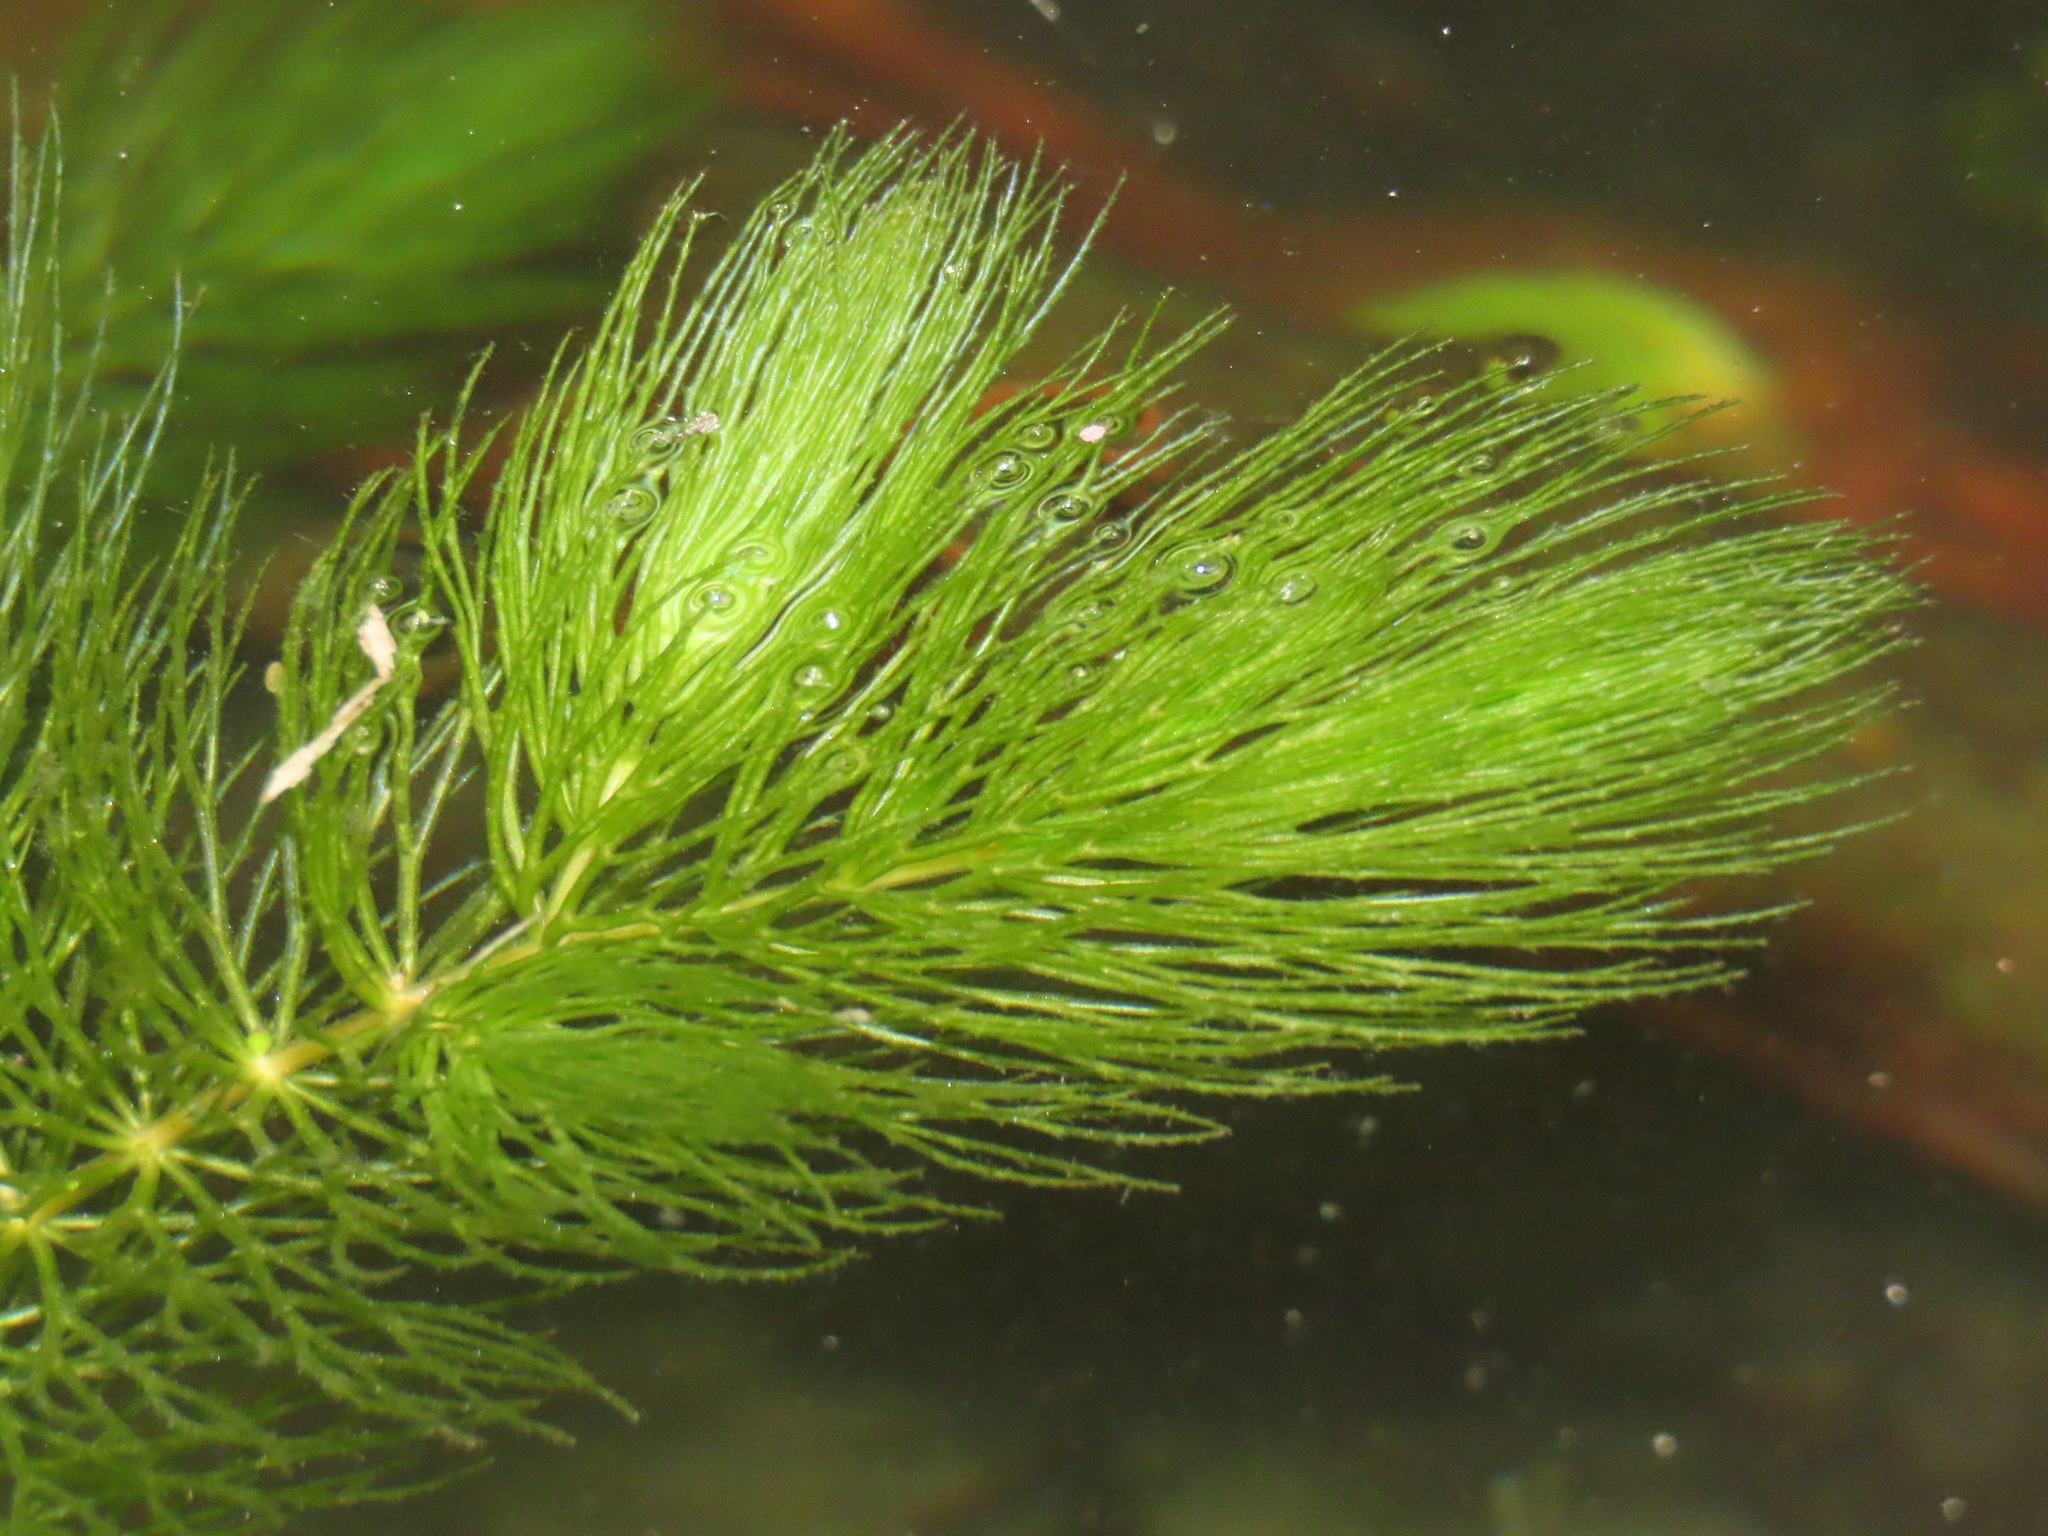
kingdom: Plantae
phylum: Tracheophyta
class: Magnoliopsida
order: Ceratophyllales
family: Ceratophyllaceae
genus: Ceratophyllum
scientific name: Ceratophyllum demersum
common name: Rigid hornwort
